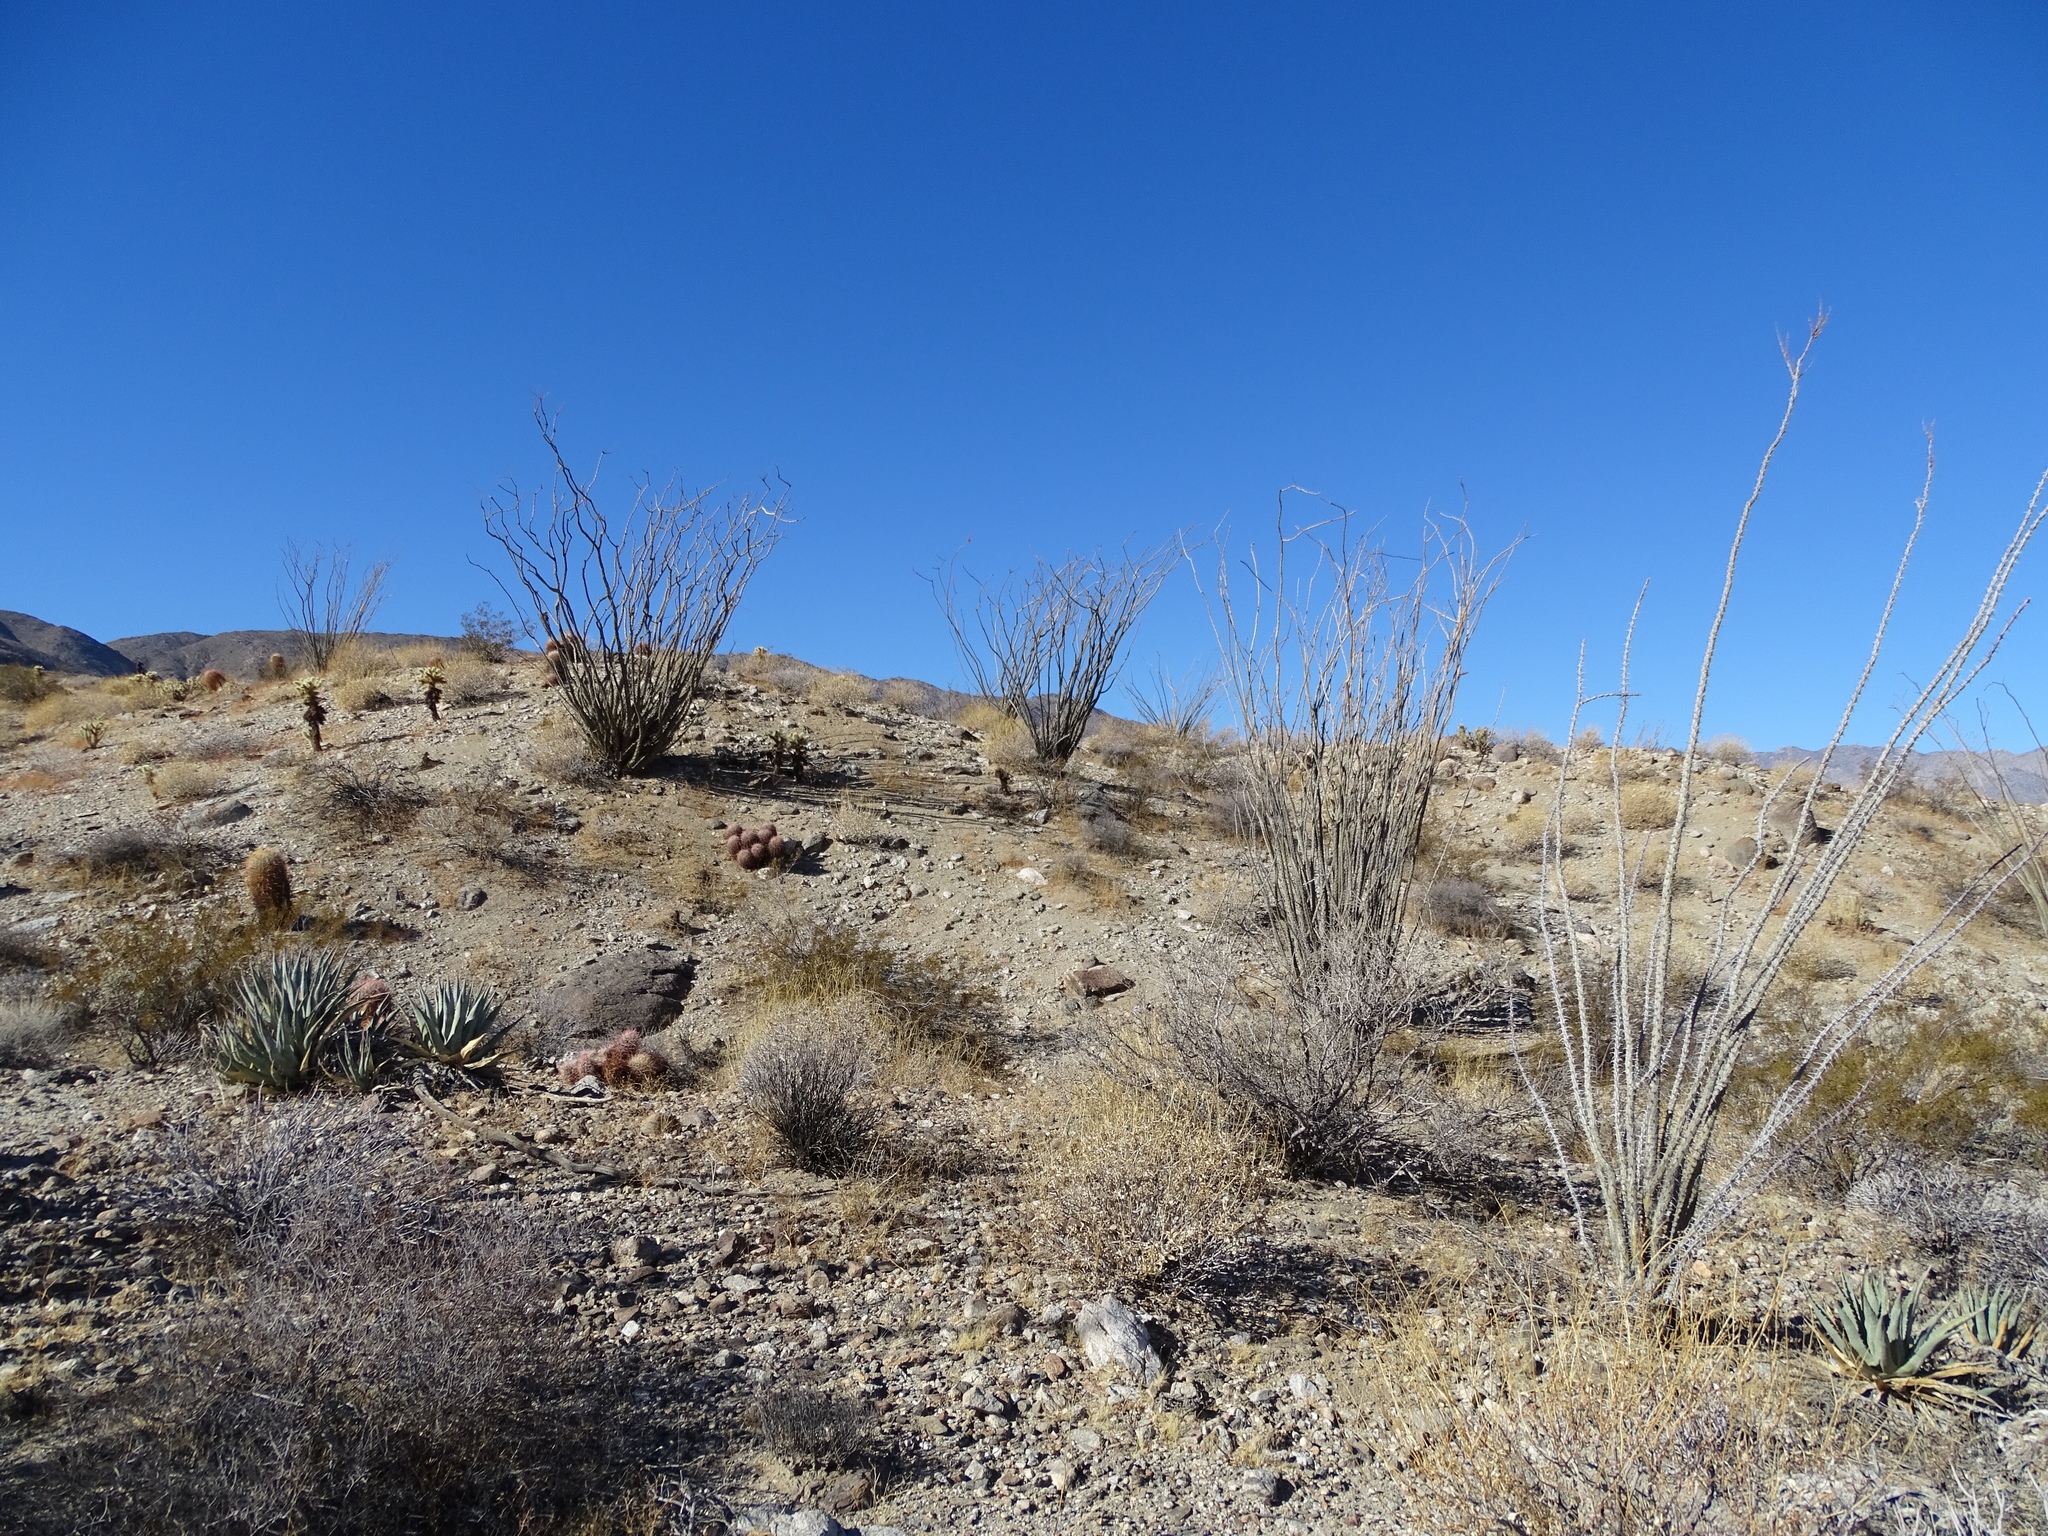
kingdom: Plantae
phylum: Tracheophyta
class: Magnoliopsida
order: Ericales
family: Fouquieriaceae
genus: Fouquieria
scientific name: Fouquieria splendens
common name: Vine-cactus
